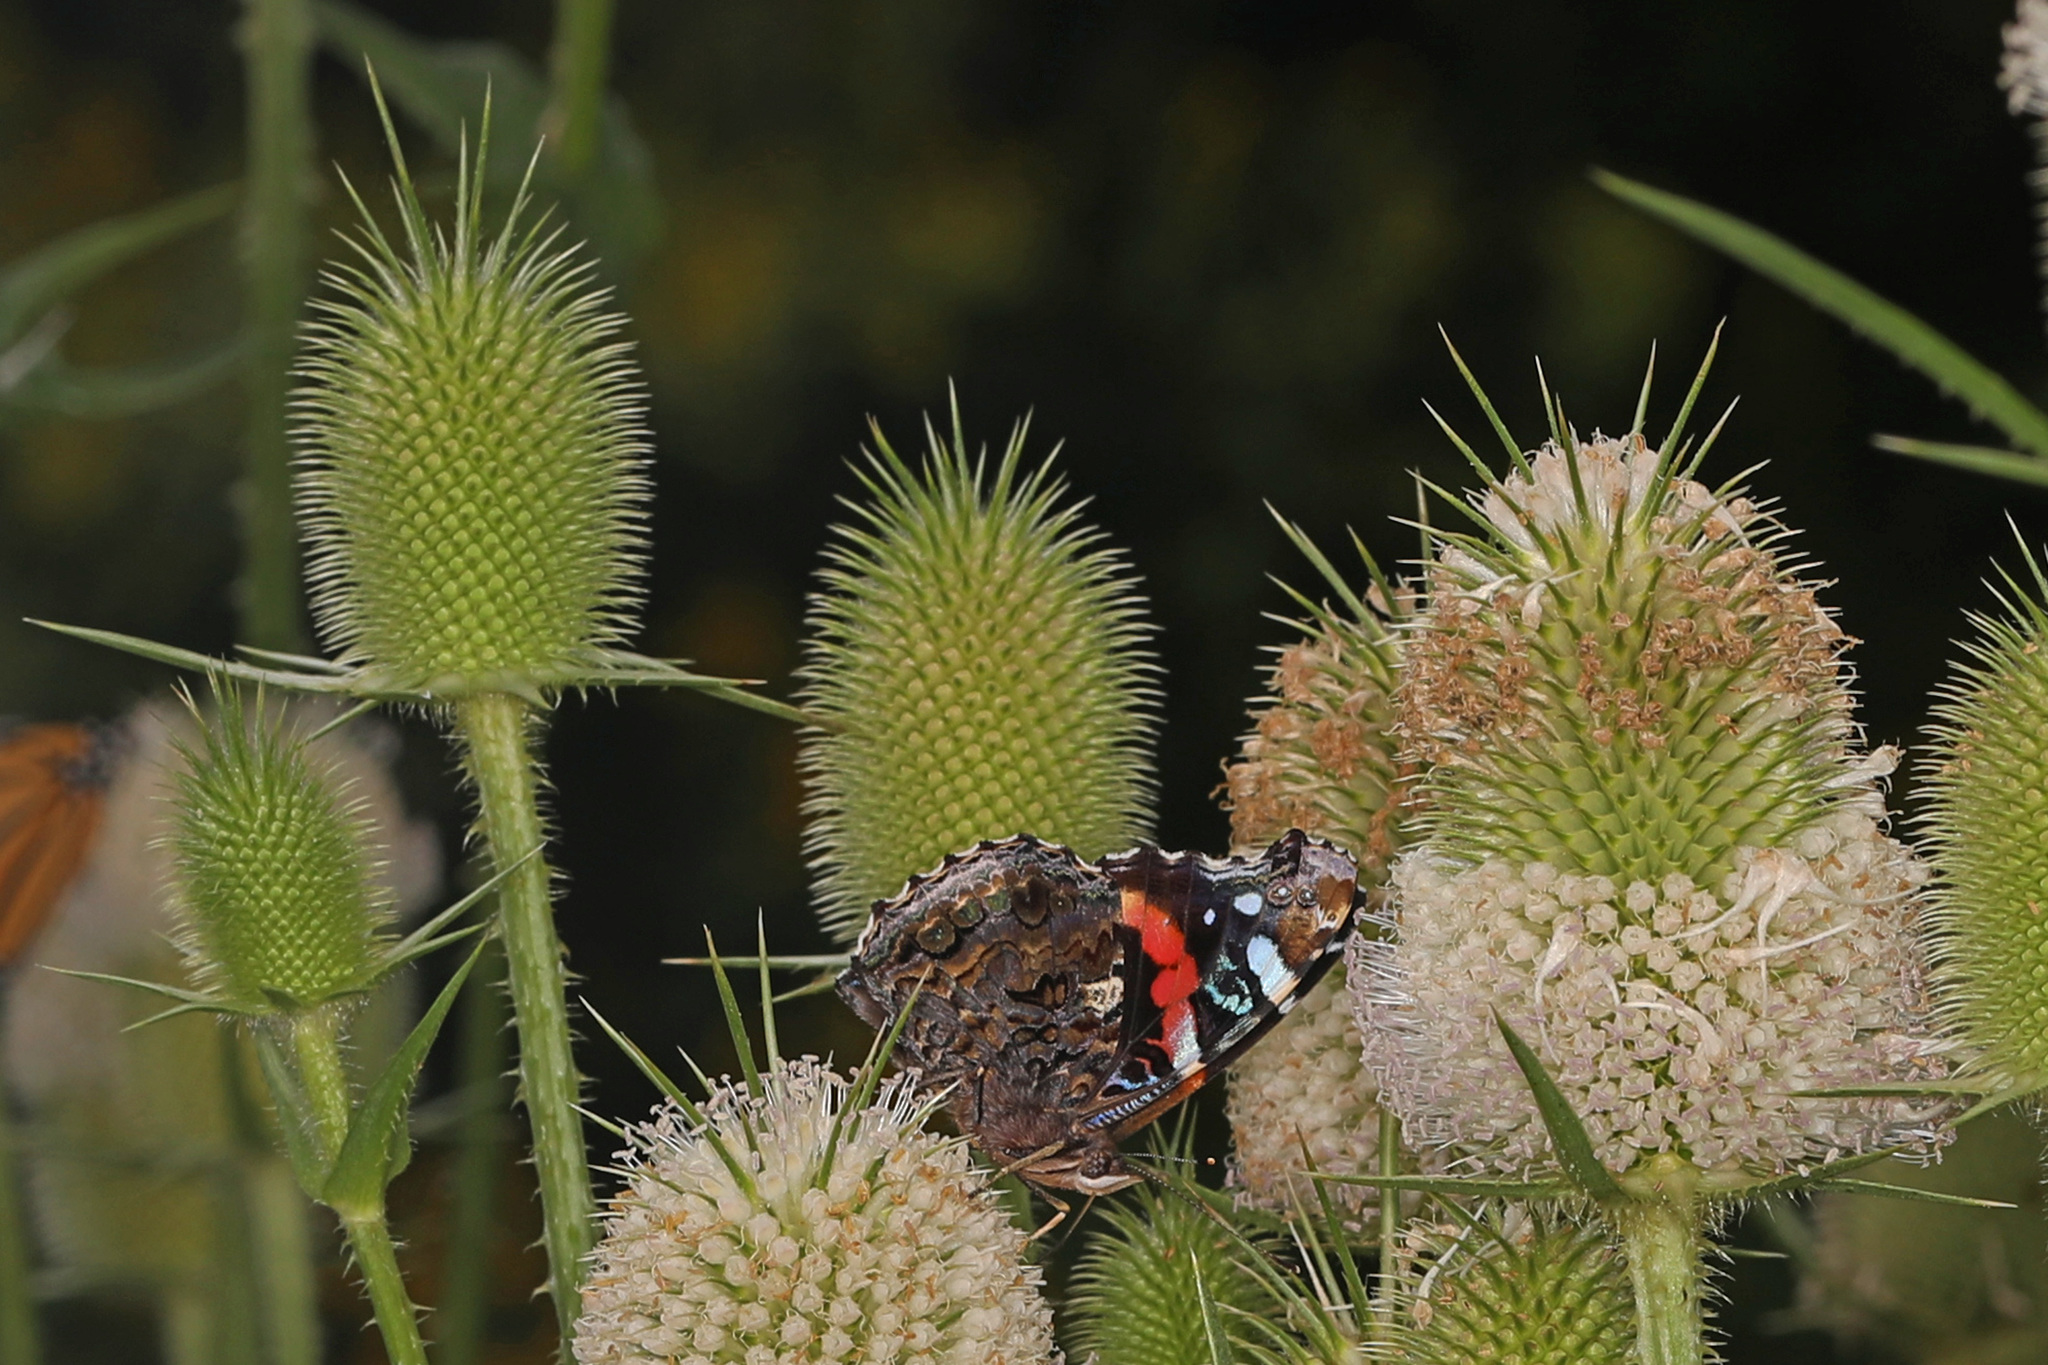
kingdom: Animalia
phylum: Arthropoda
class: Insecta
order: Lepidoptera
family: Nymphalidae
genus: Vanessa
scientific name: Vanessa atalanta
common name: Red admiral
